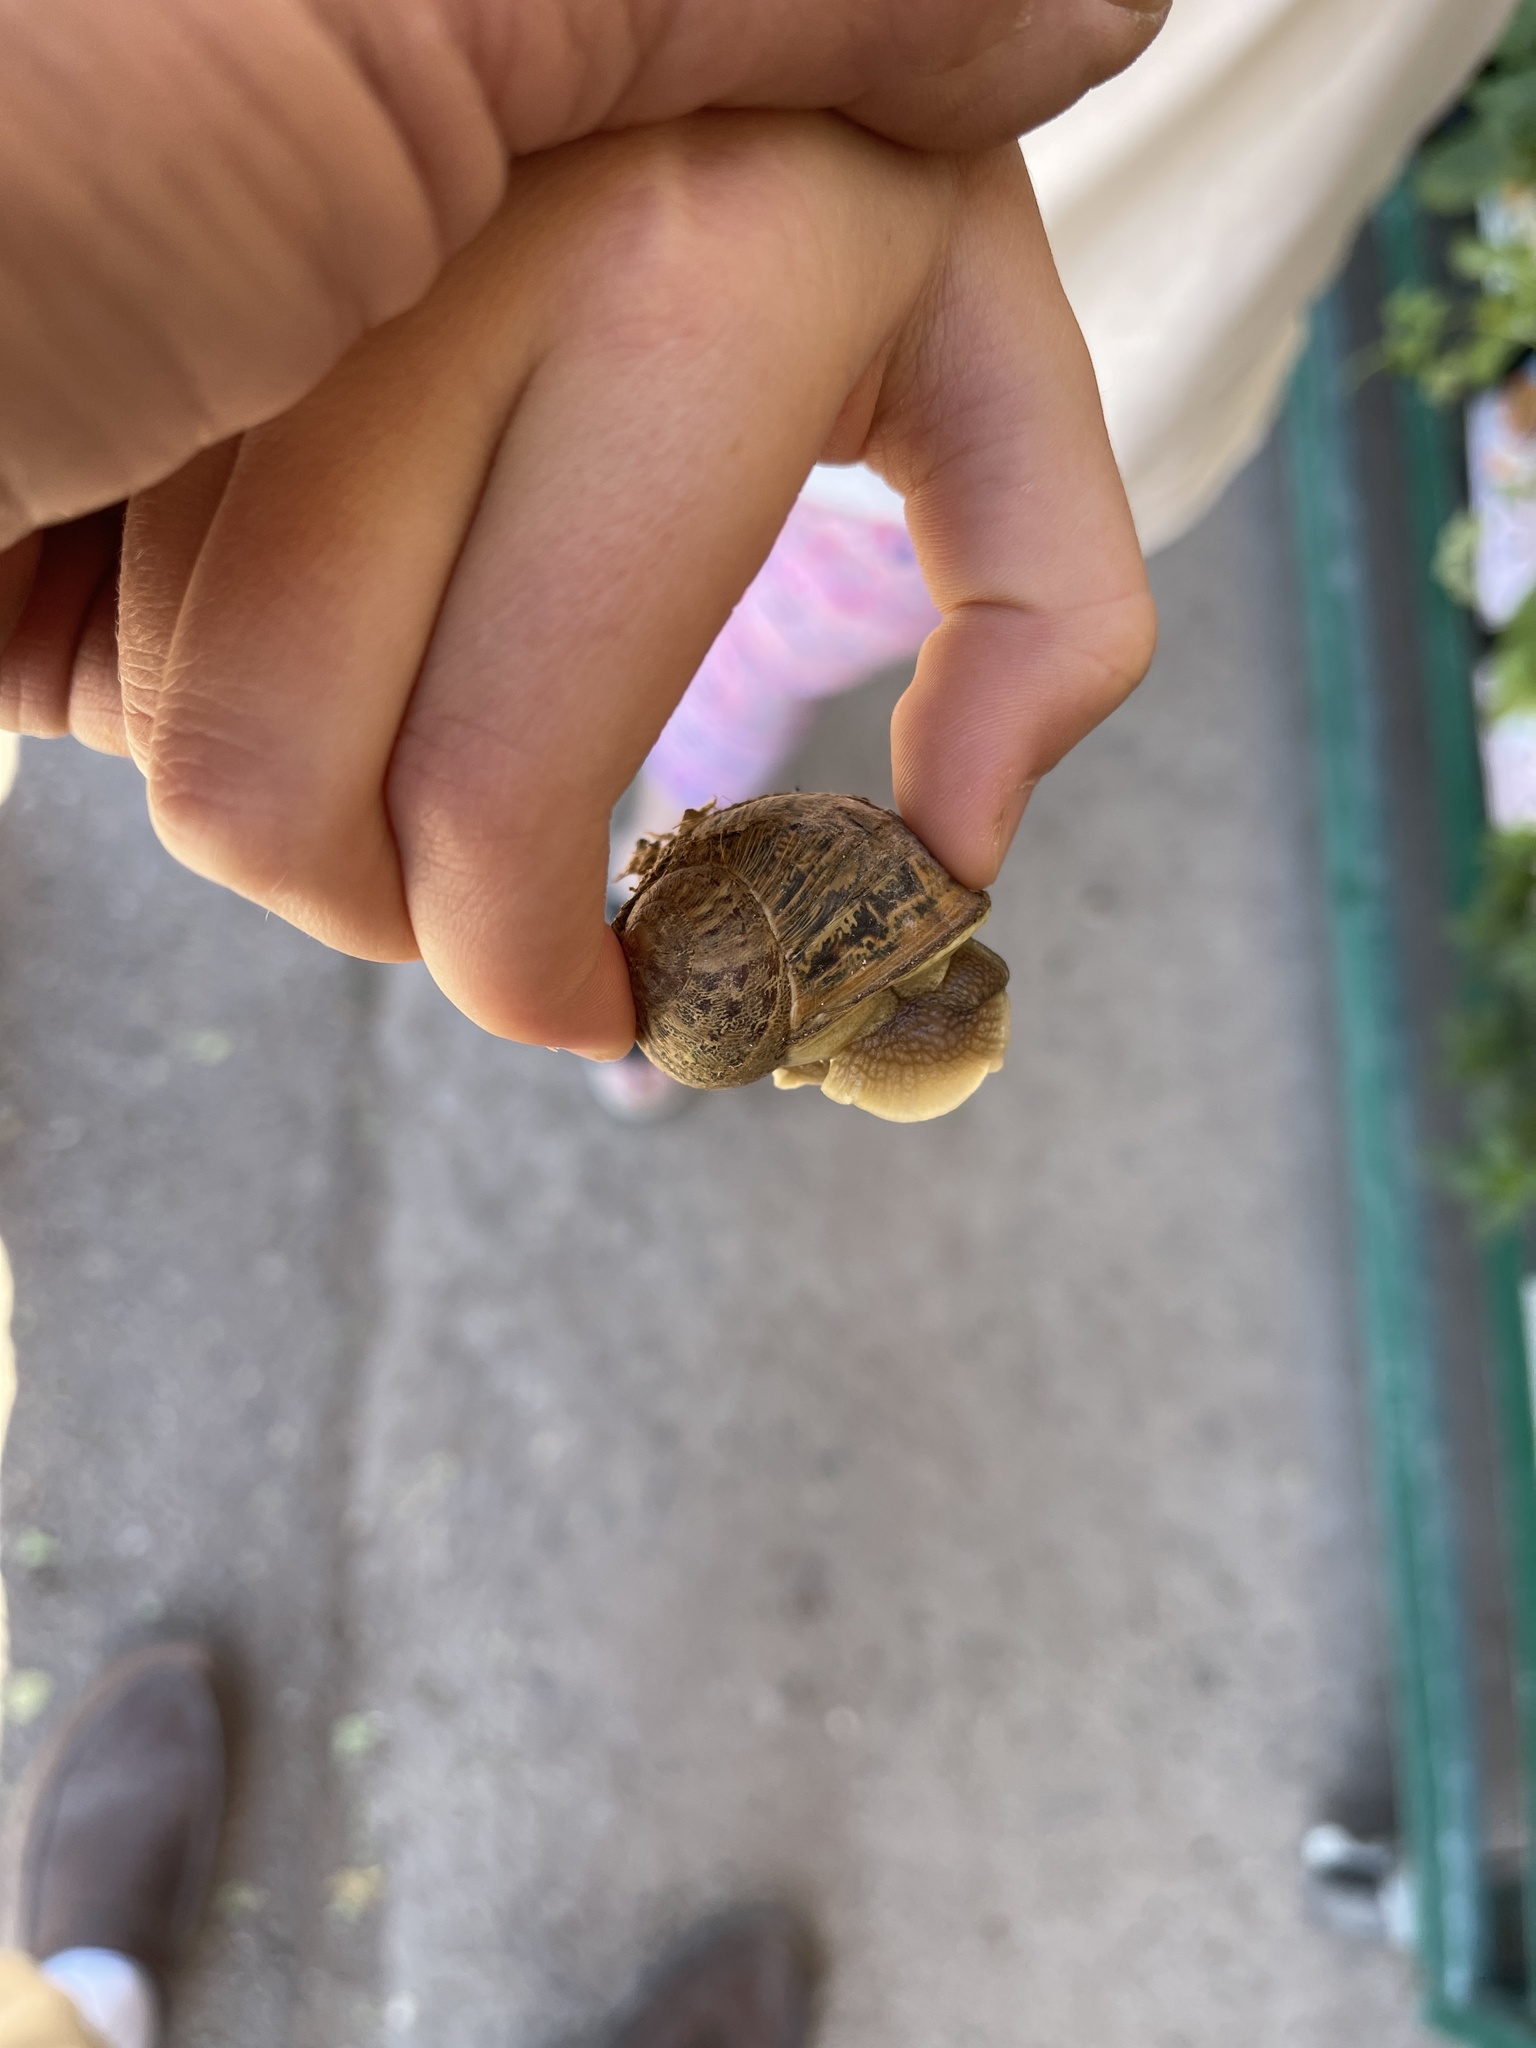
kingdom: Animalia
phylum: Mollusca
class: Gastropoda
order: Stylommatophora
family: Helicidae
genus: Cornu
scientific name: Cornu aspersum
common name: Brown garden snail
